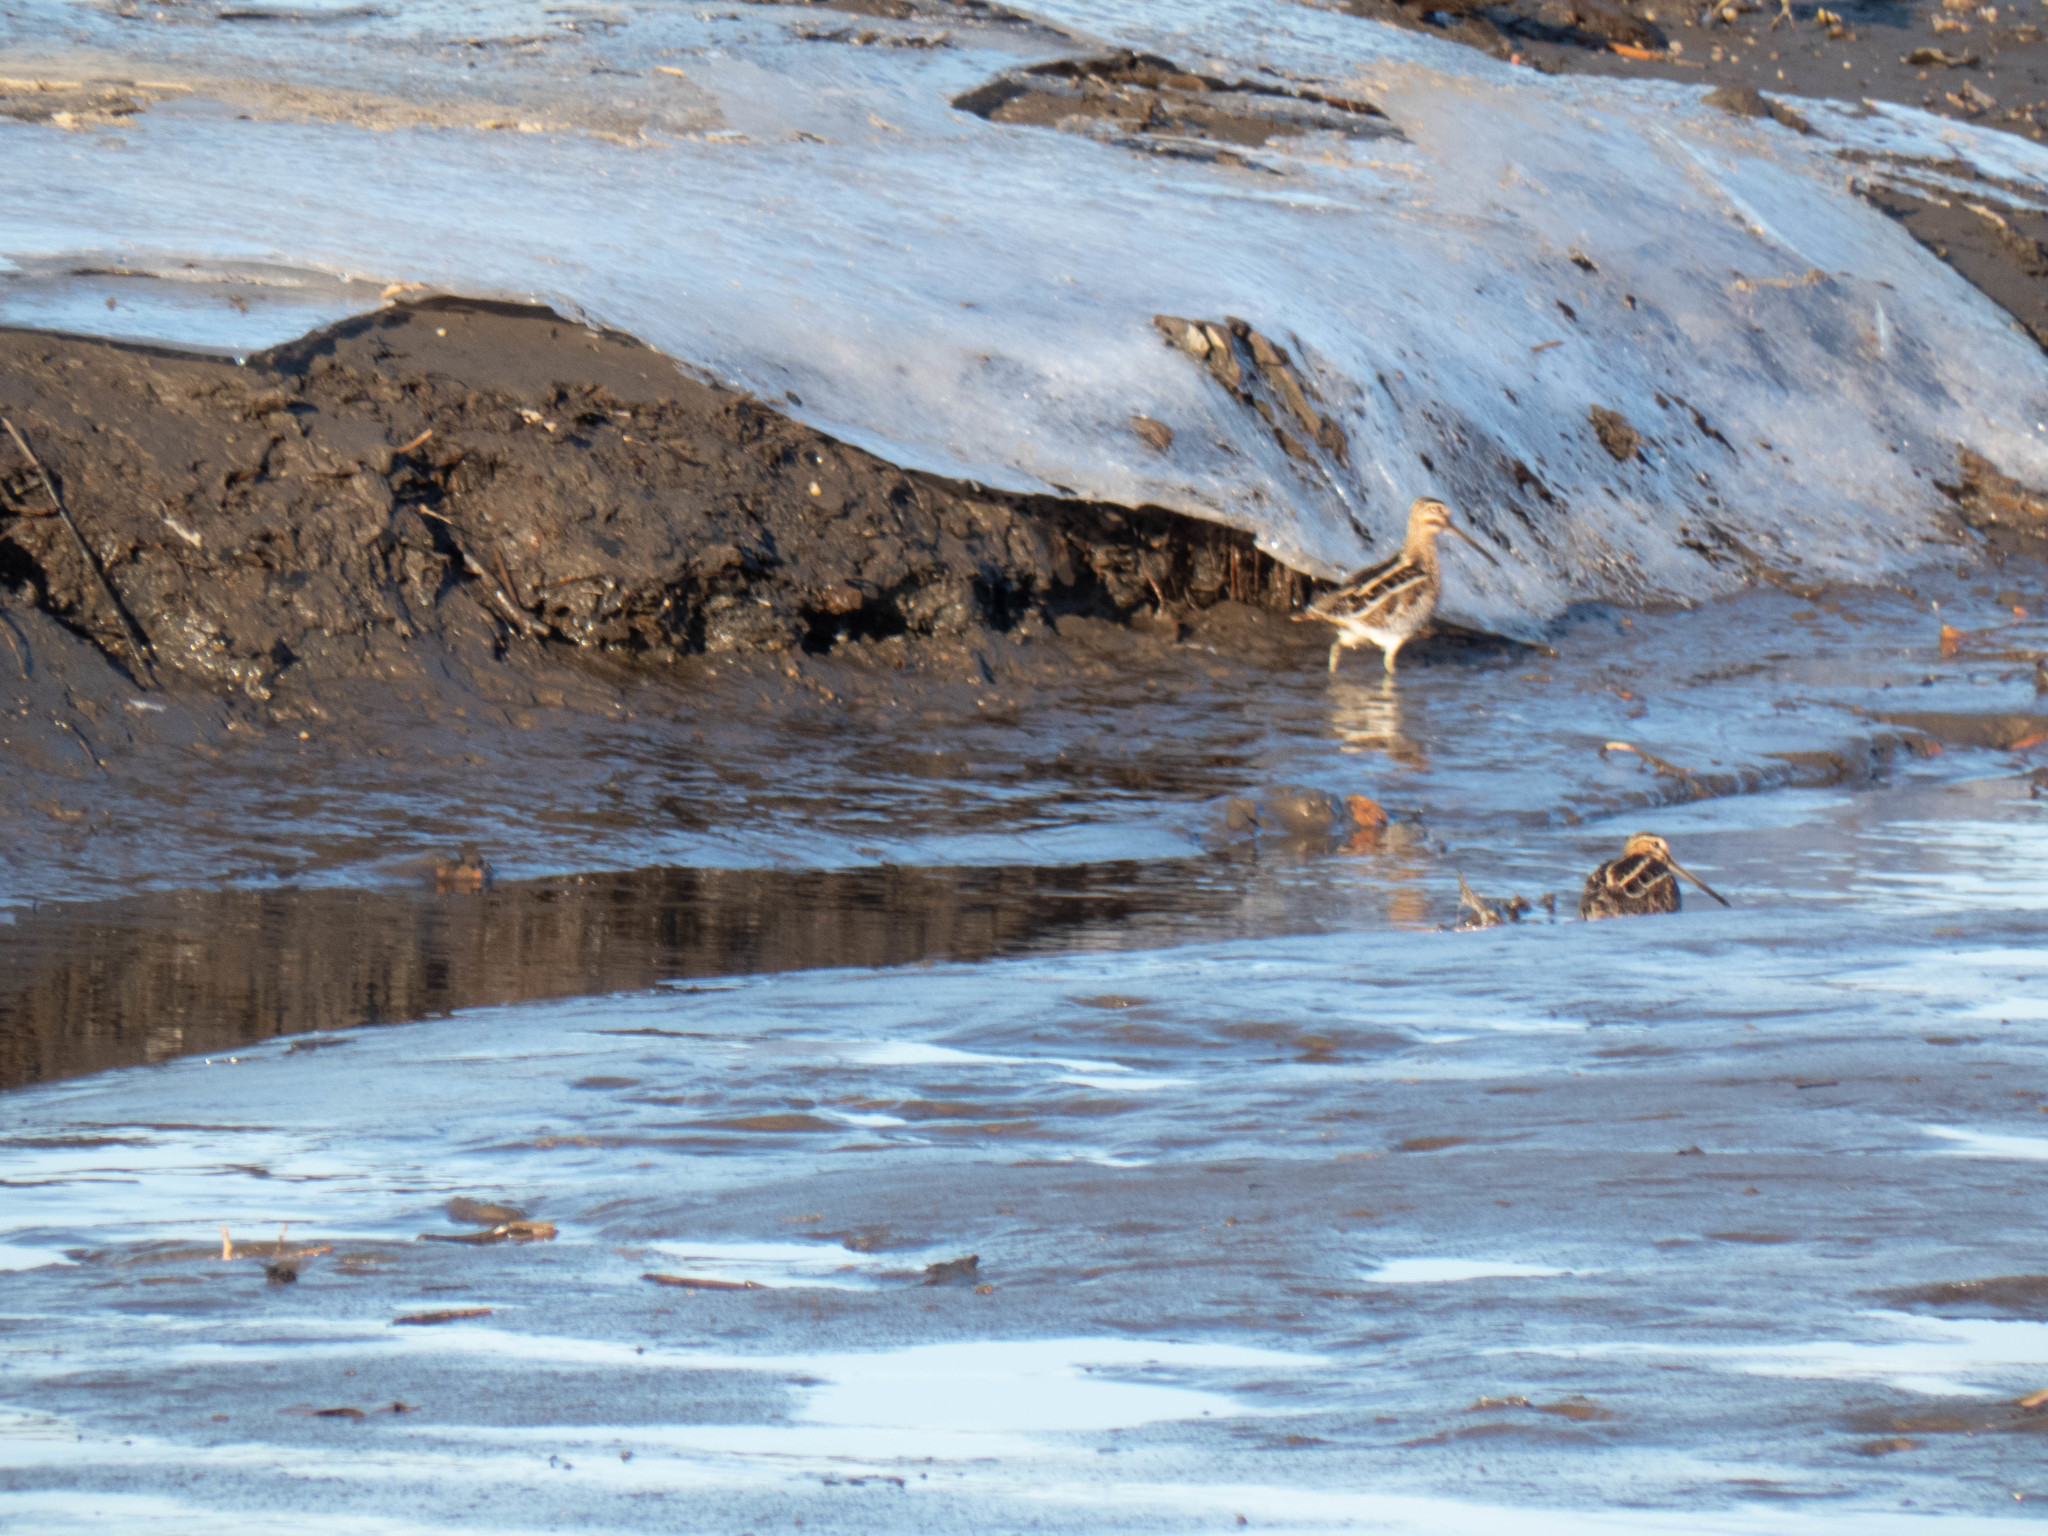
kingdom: Animalia
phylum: Chordata
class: Aves
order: Charadriiformes
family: Scolopacidae
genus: Gallinago
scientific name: Gallinago delicata
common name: Wilson's snipe
